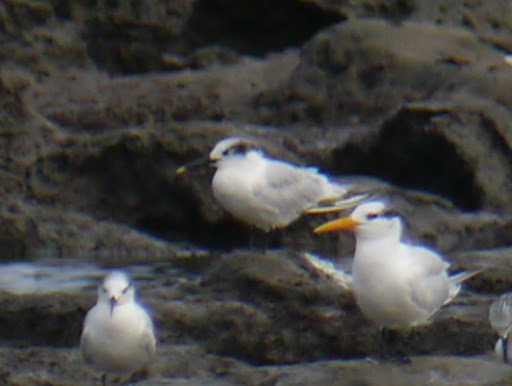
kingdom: Animalia
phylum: Chordata
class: Aves
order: Charadriiformes
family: Laridae
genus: Thalasseus
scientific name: Thalasseus sandvicensis
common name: Sandwich tern
